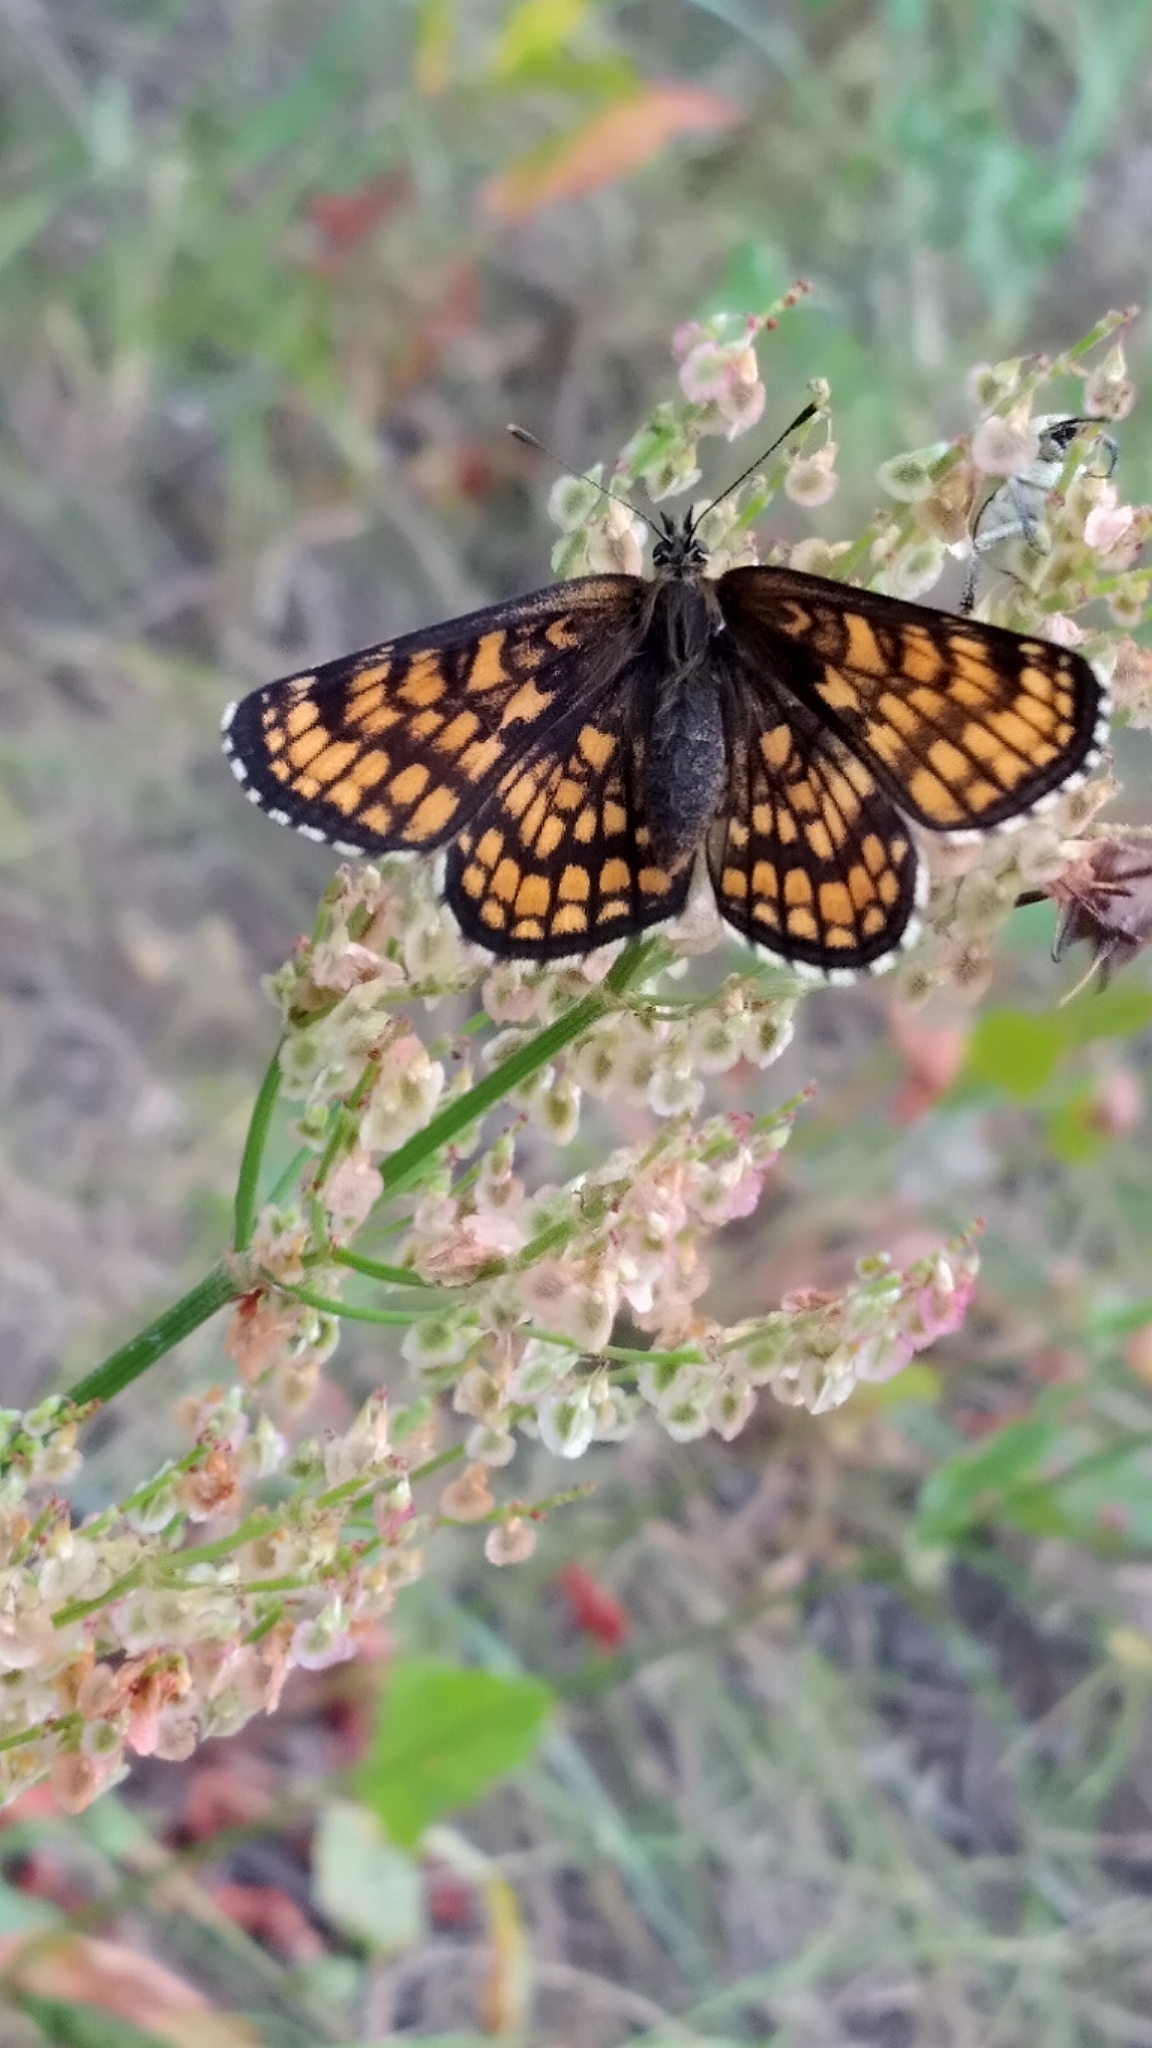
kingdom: Animalia
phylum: Arthropoda
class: Insecta
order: Lepidoptera
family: Nymphalidae
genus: Melitaea
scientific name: Melitaea athalia
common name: Heath fritillary
